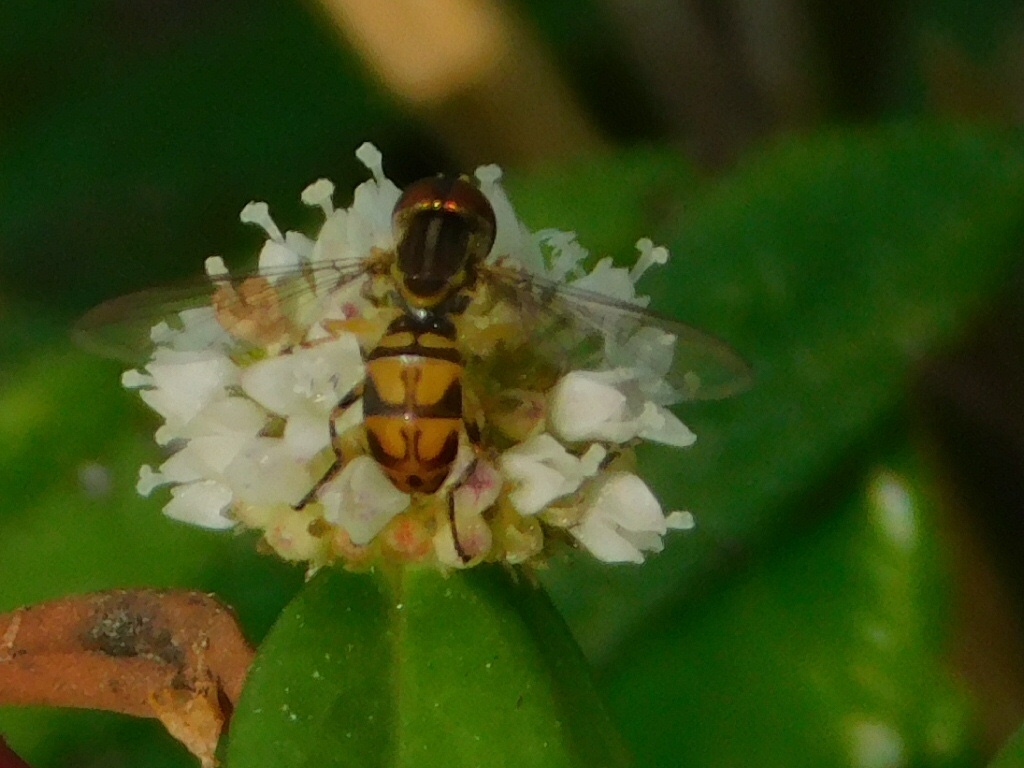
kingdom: Animalia
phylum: Arthropoda
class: Insecta
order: Diptera
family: Syrphidae
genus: Toxomerus
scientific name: Toxomerus floralis
